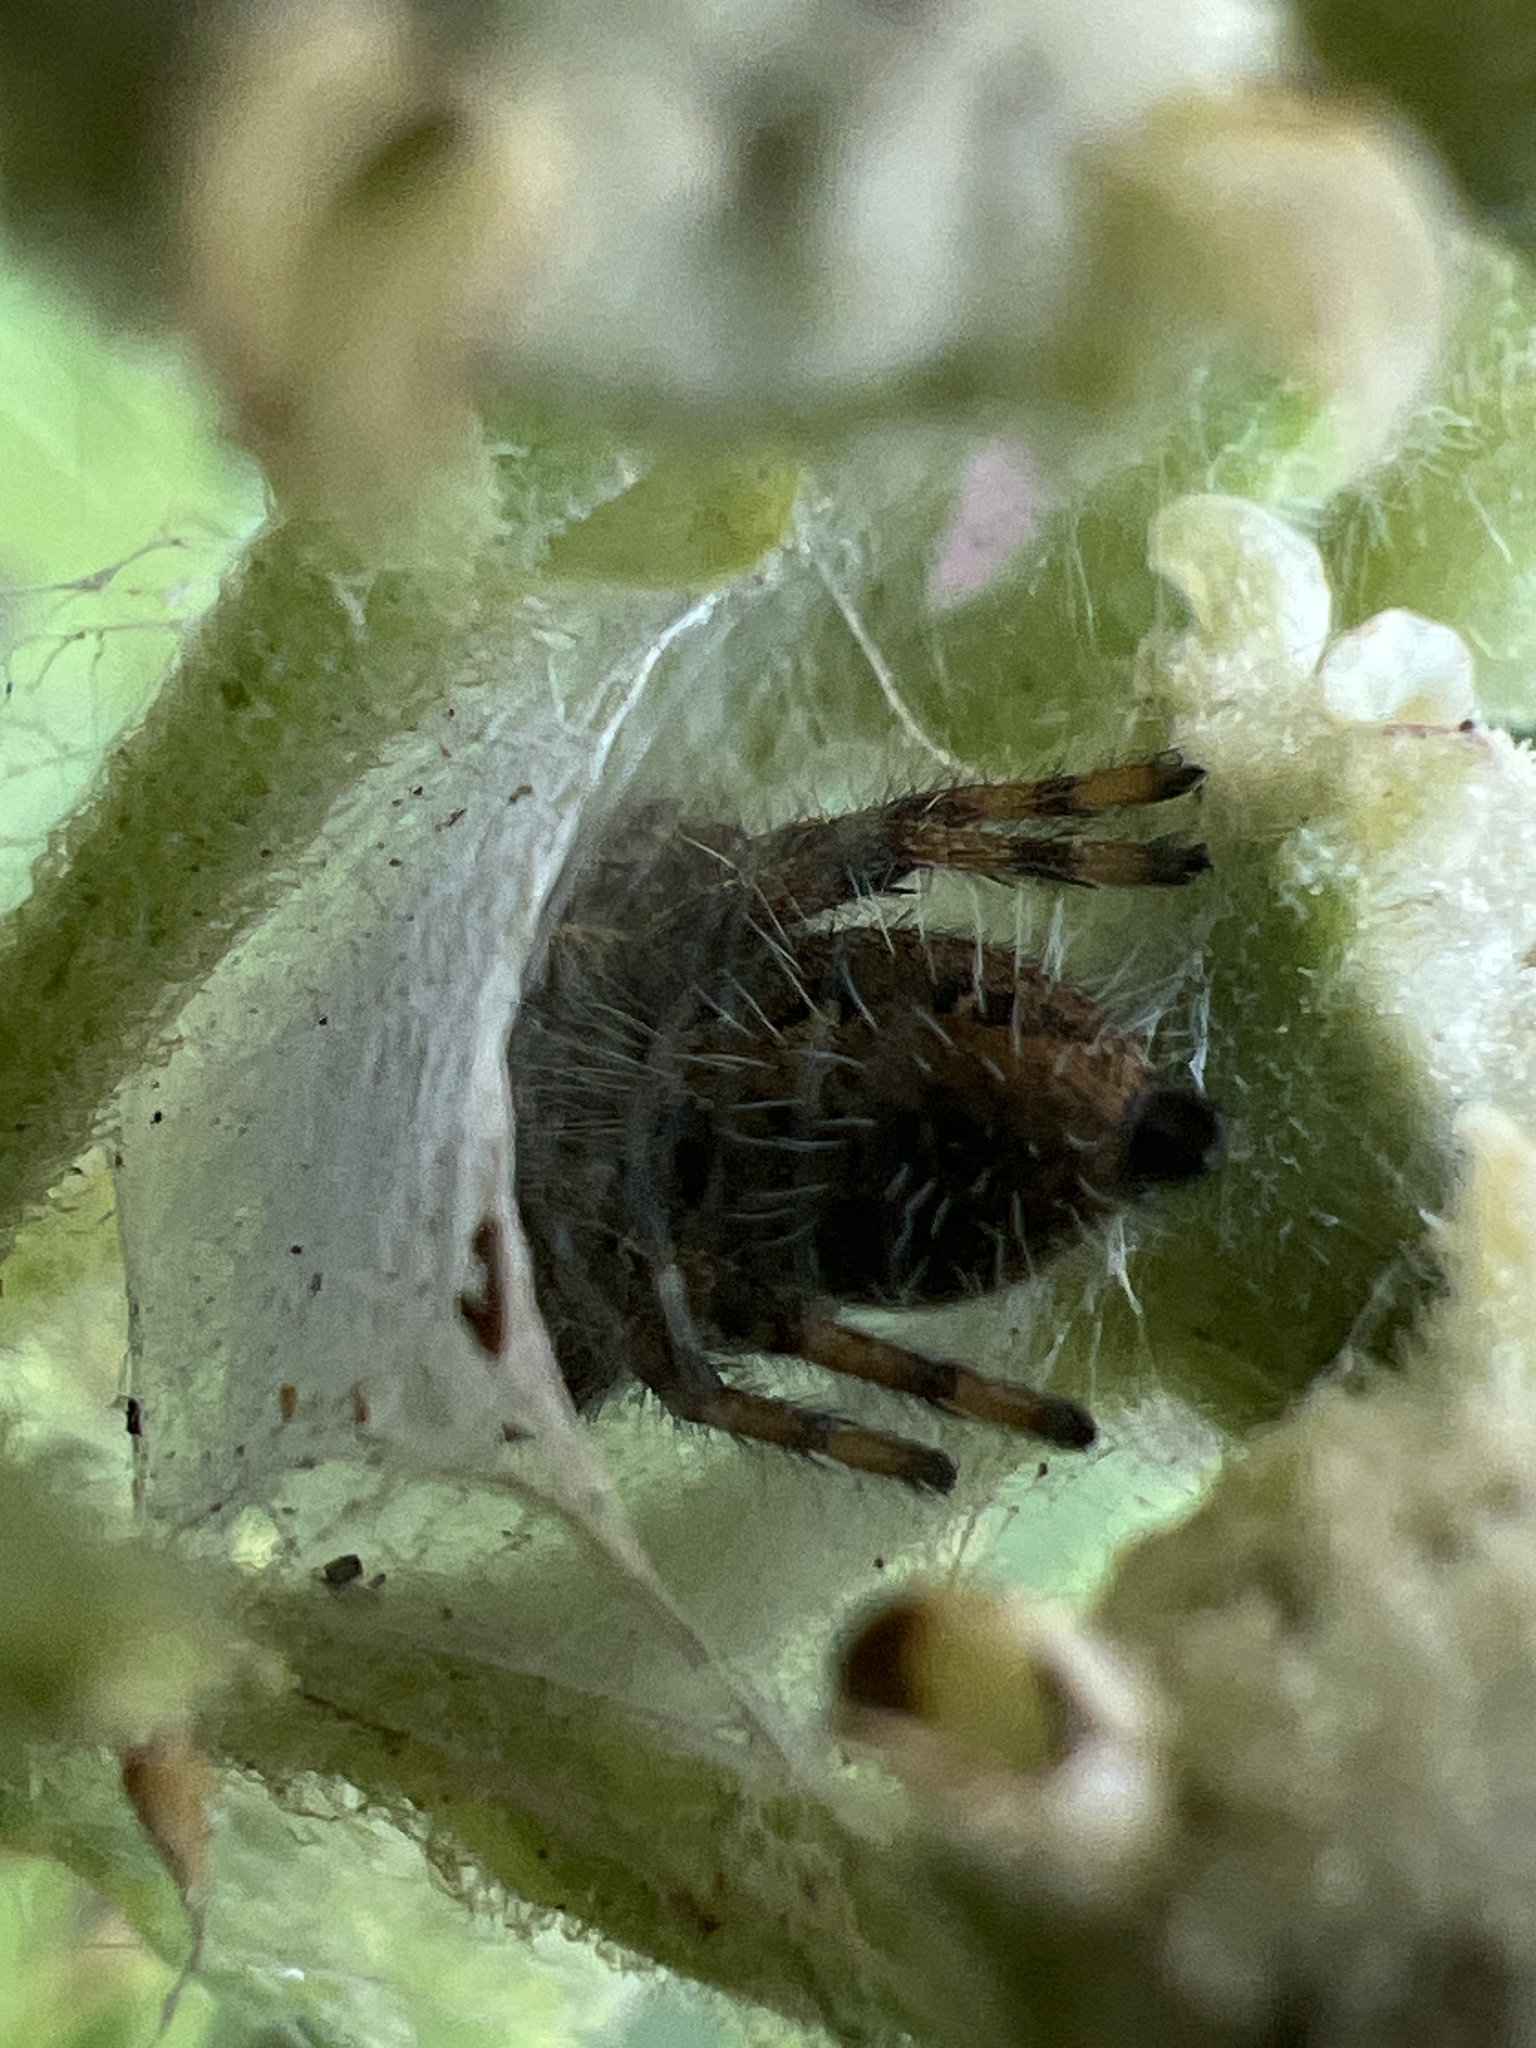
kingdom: Animalia
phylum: Arthropoda
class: Arachnida
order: Araneae
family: Salticidae
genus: Phidippus
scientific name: Phidippus princeps
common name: Grayish jumping spider
